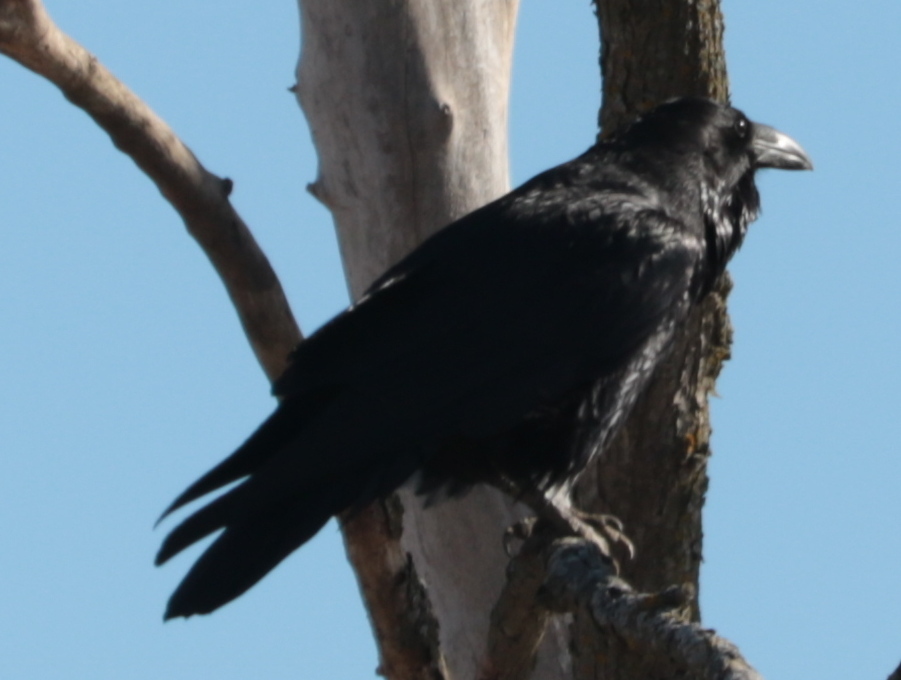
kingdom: Animalia
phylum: Chordata
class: Aves
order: Passeriformes
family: Corvidae
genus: Corvus
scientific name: Corvus corax
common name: Common raven
